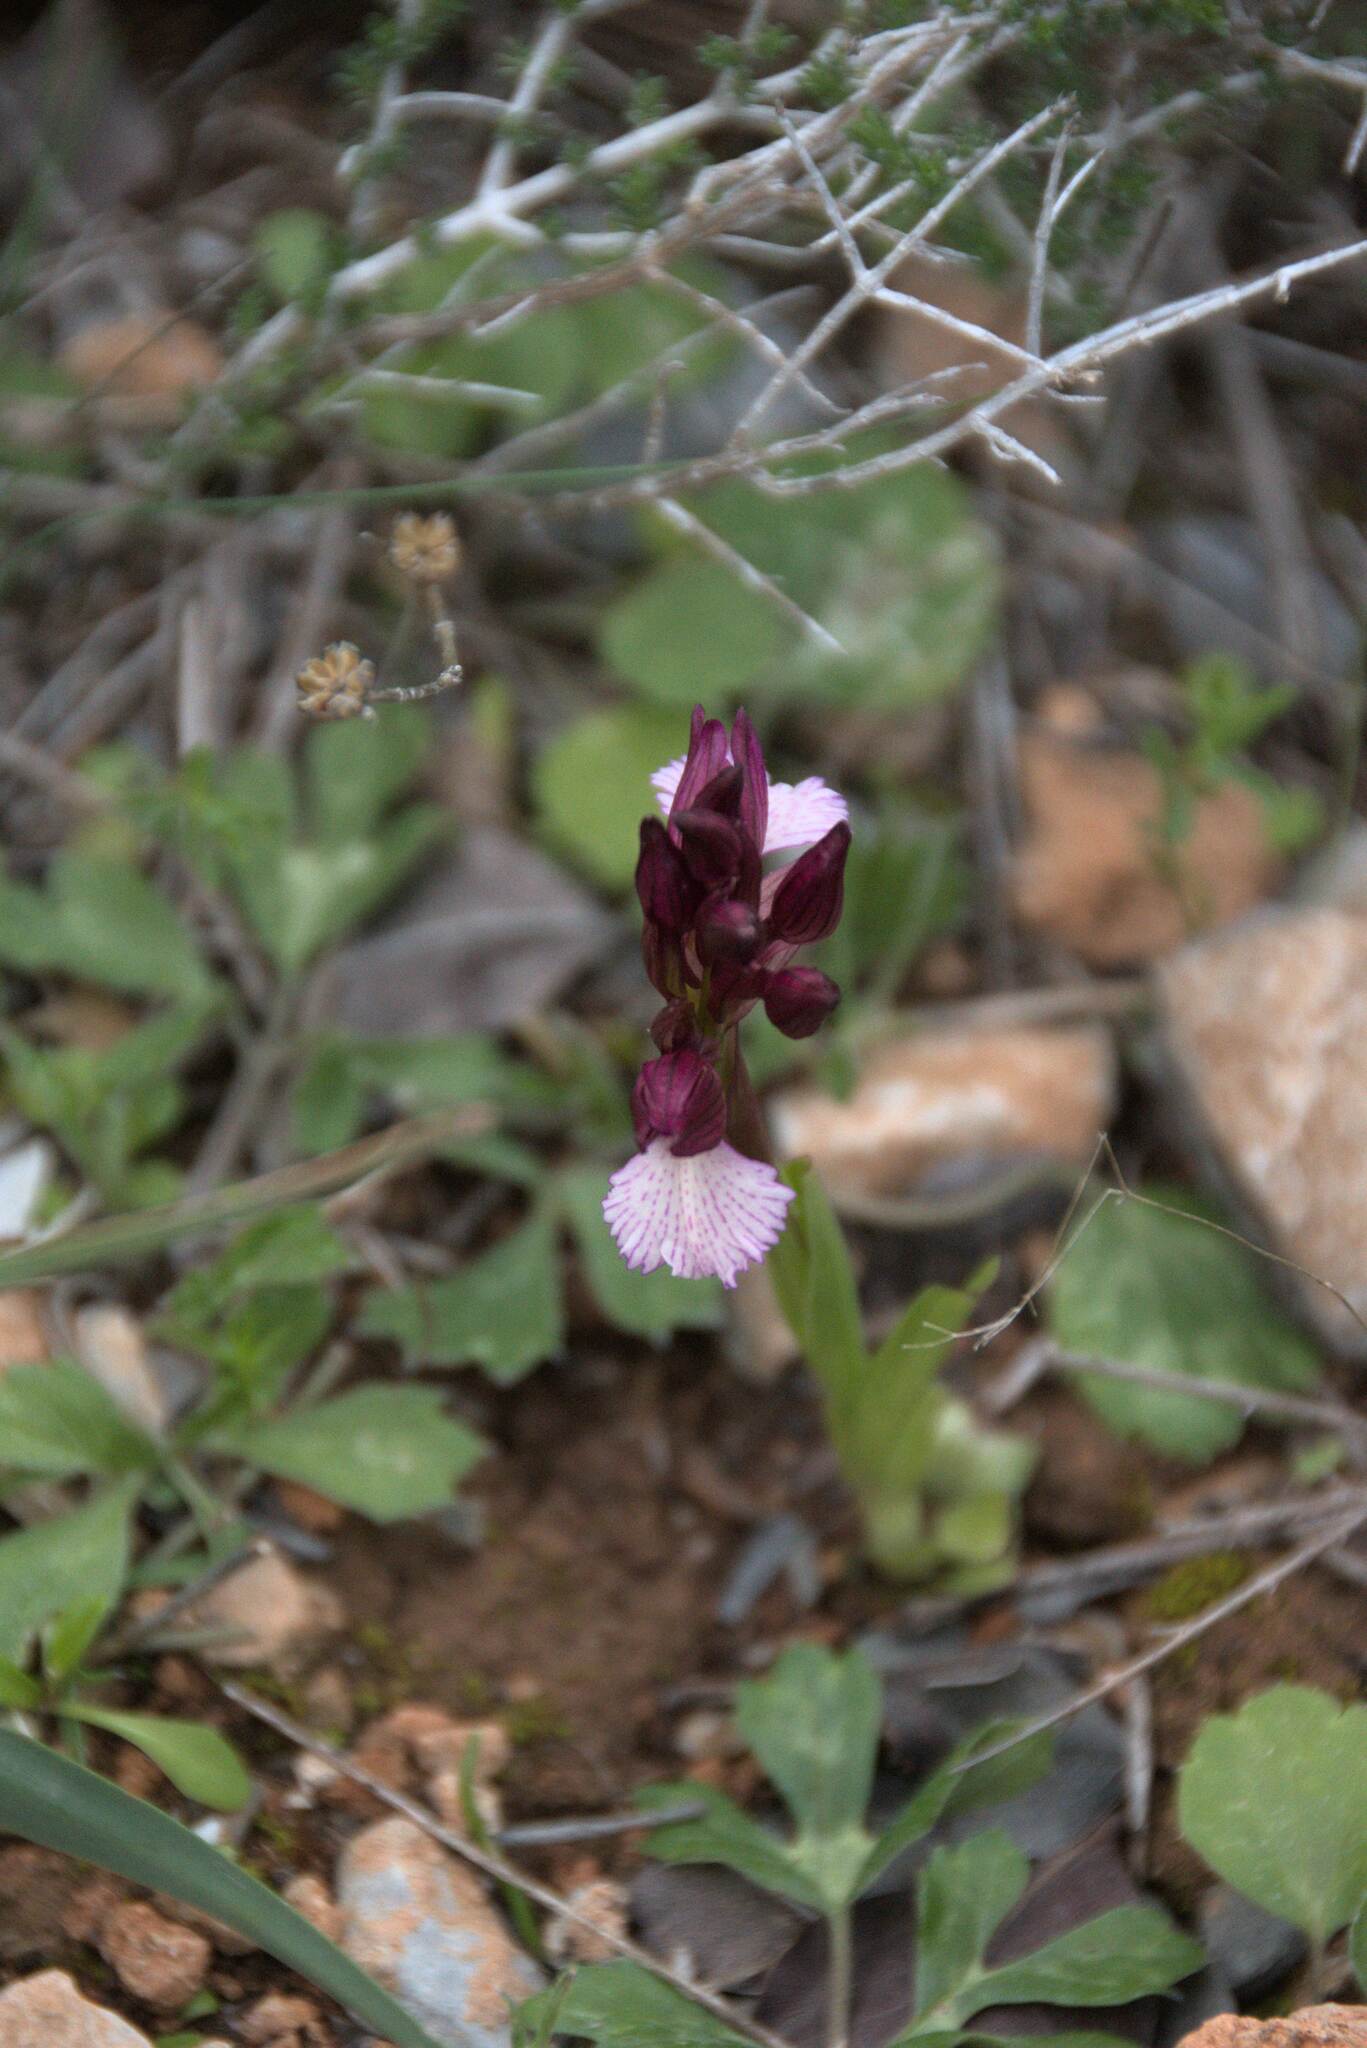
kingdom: Plantae
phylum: Tracheophyta
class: Liliopsida
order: Asparagales
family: Orchidaceae
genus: Anacamptis
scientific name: Anacamptis papilionacea
